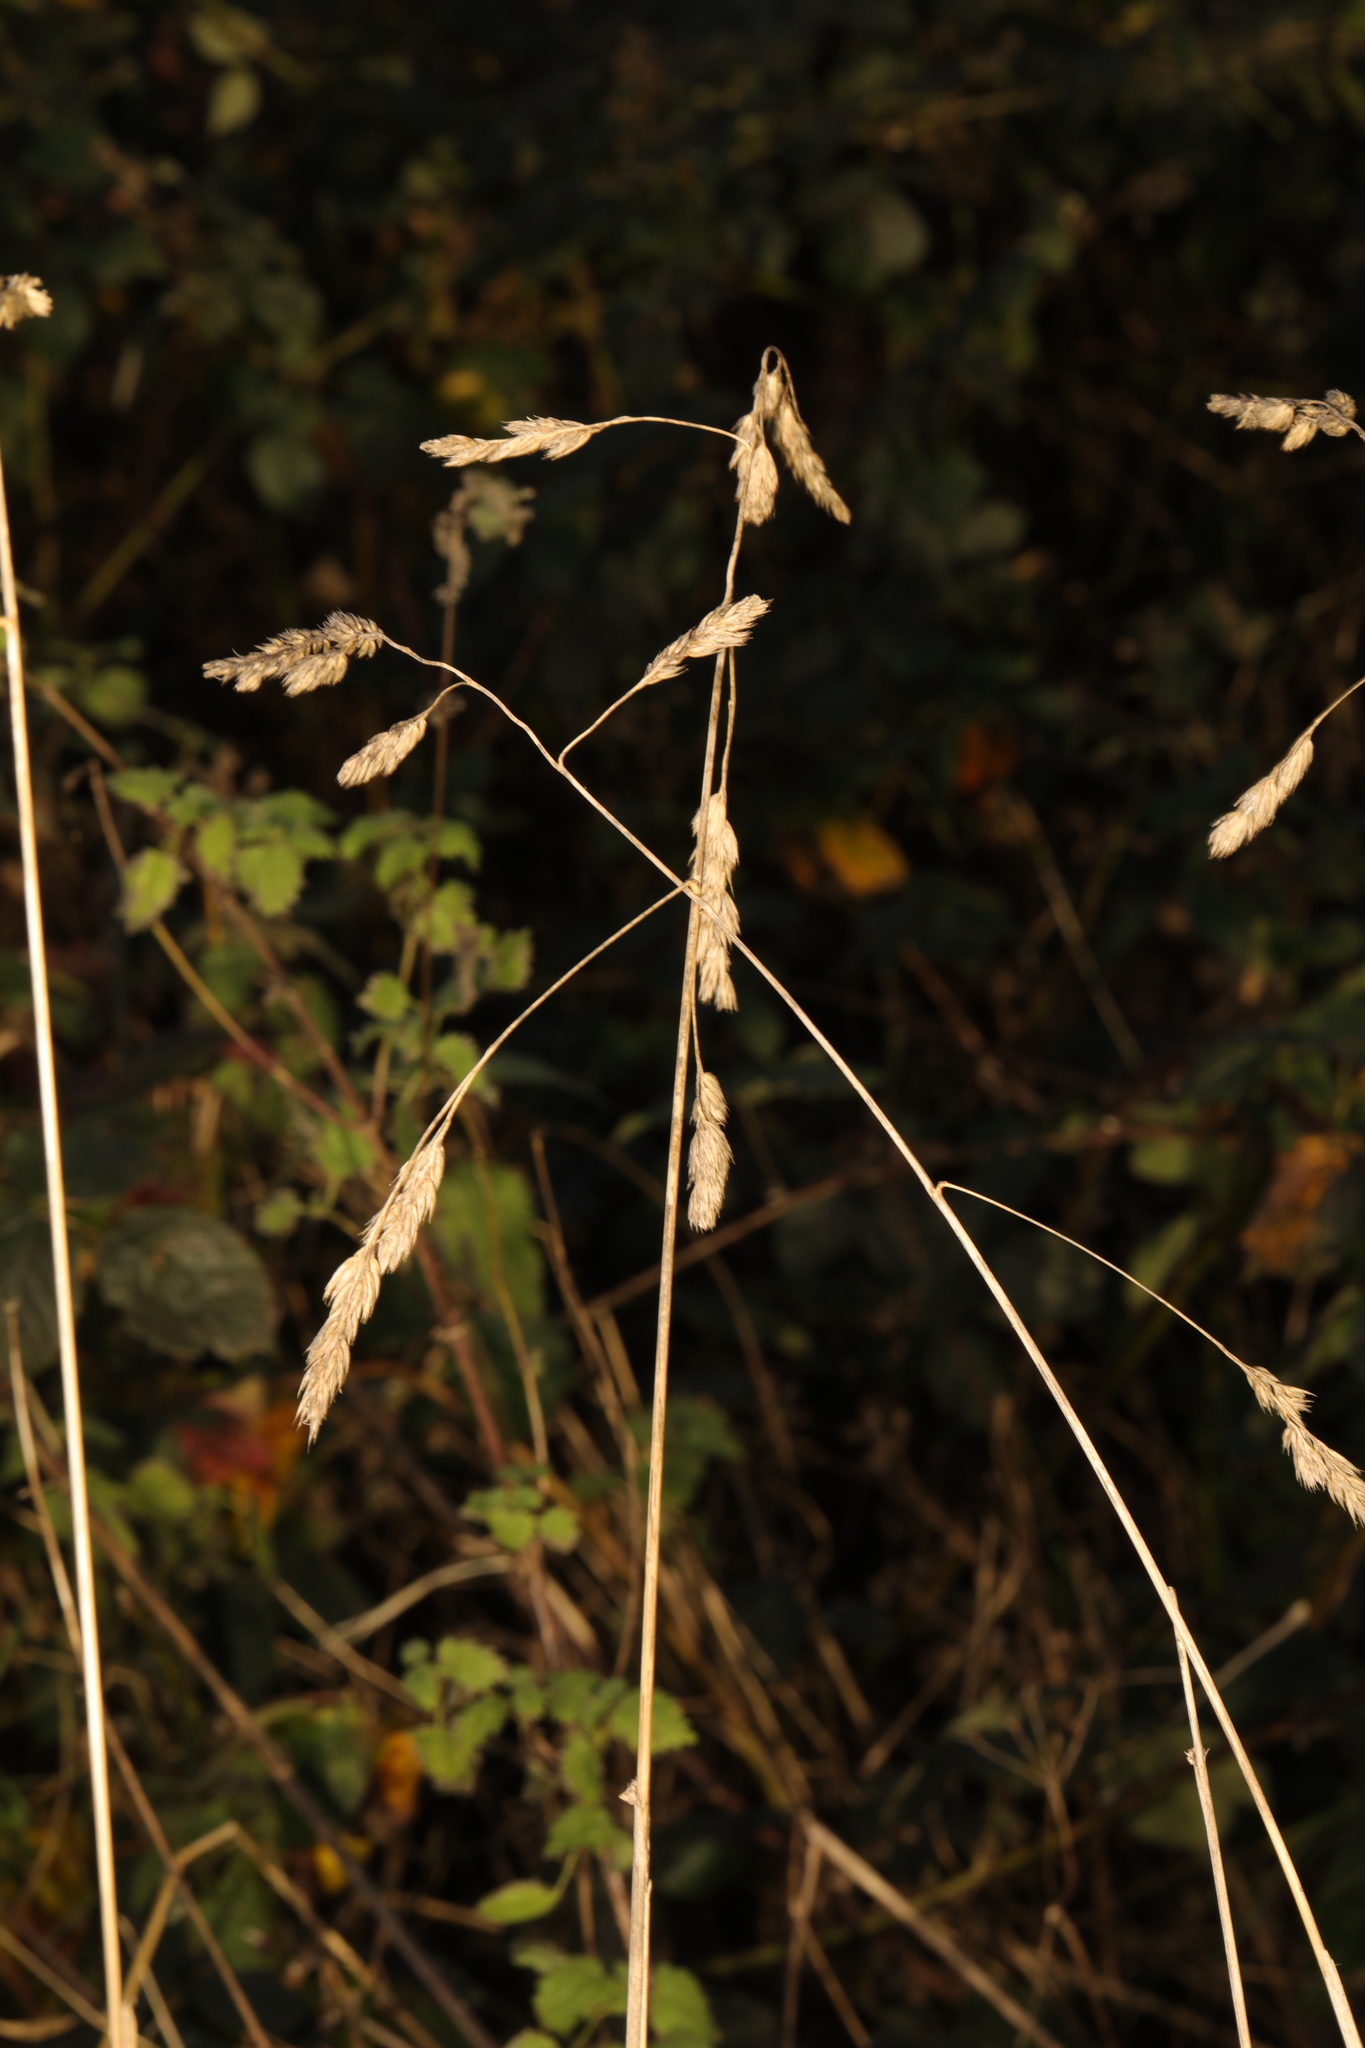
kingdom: Plantae
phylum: Tracheophyta
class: Liliopsida
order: Poales
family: Poaceae
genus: Dactylis
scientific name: Dactylis glomerata
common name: Orchardgrass
